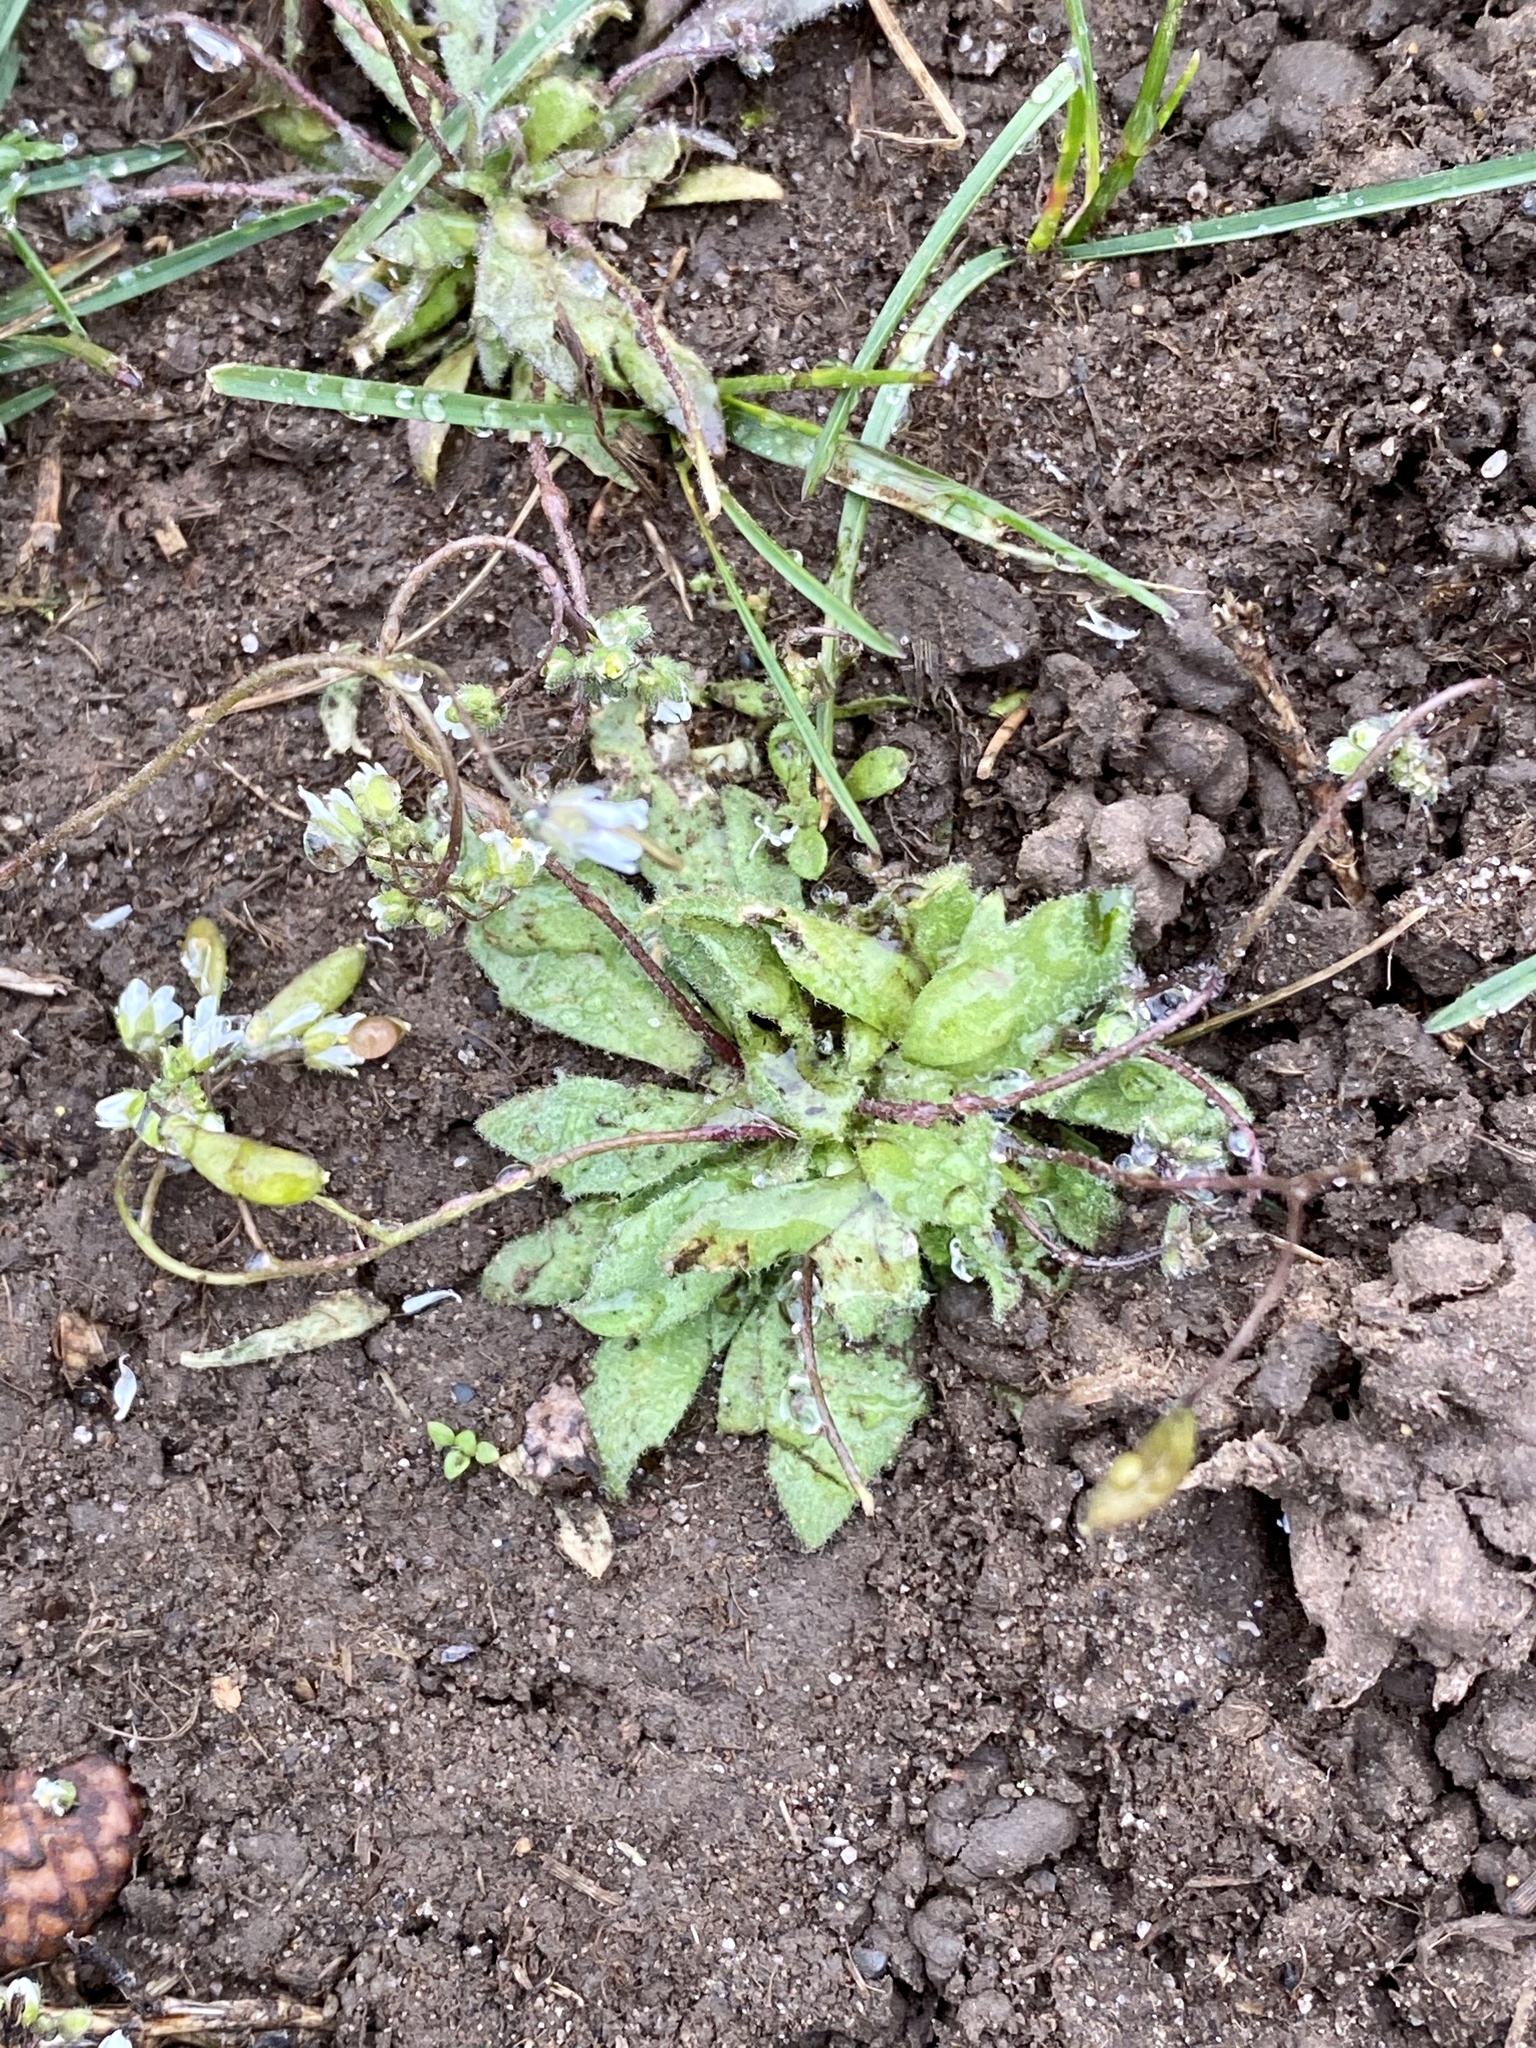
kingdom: Plantae
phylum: Tracheophyta
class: Magnoliopsida
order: Brassicales
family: Brassicaceae
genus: Draba
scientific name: Draba verna
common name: Spring draba
